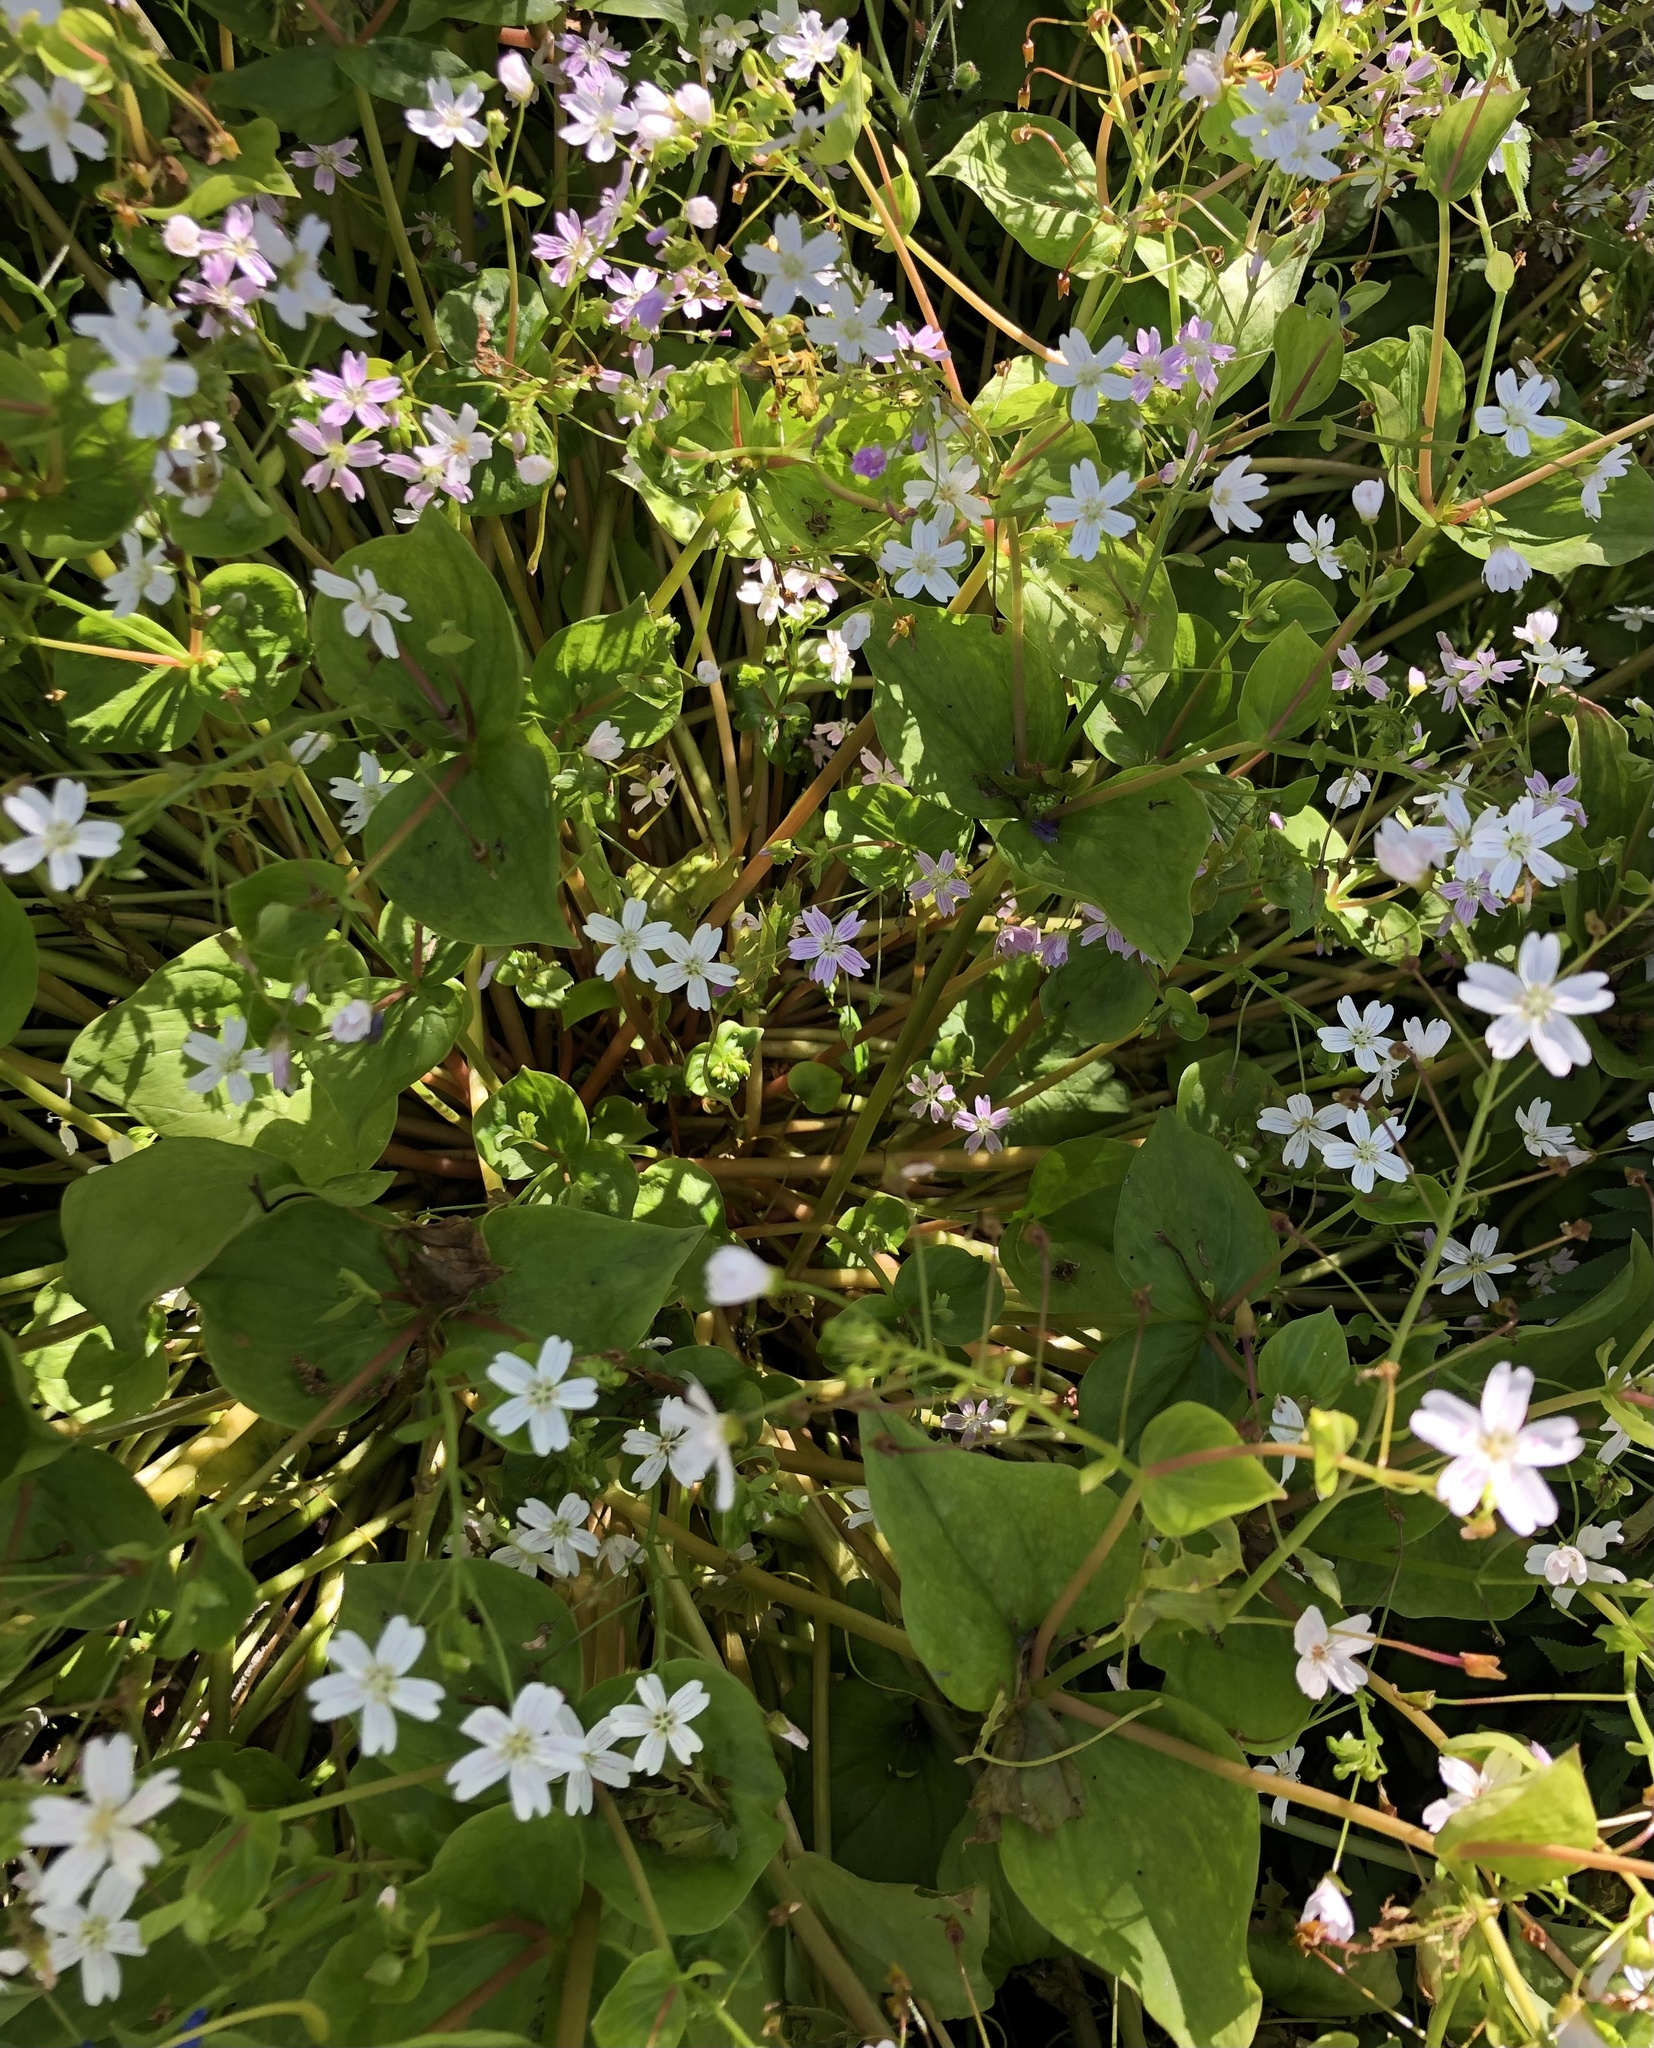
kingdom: Plantae
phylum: Tracheophyta
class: Magnoliopsida
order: Caryophyllales
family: Montiaceae
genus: Claytonia
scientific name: Claytonia sibirica
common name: Pink purslane
